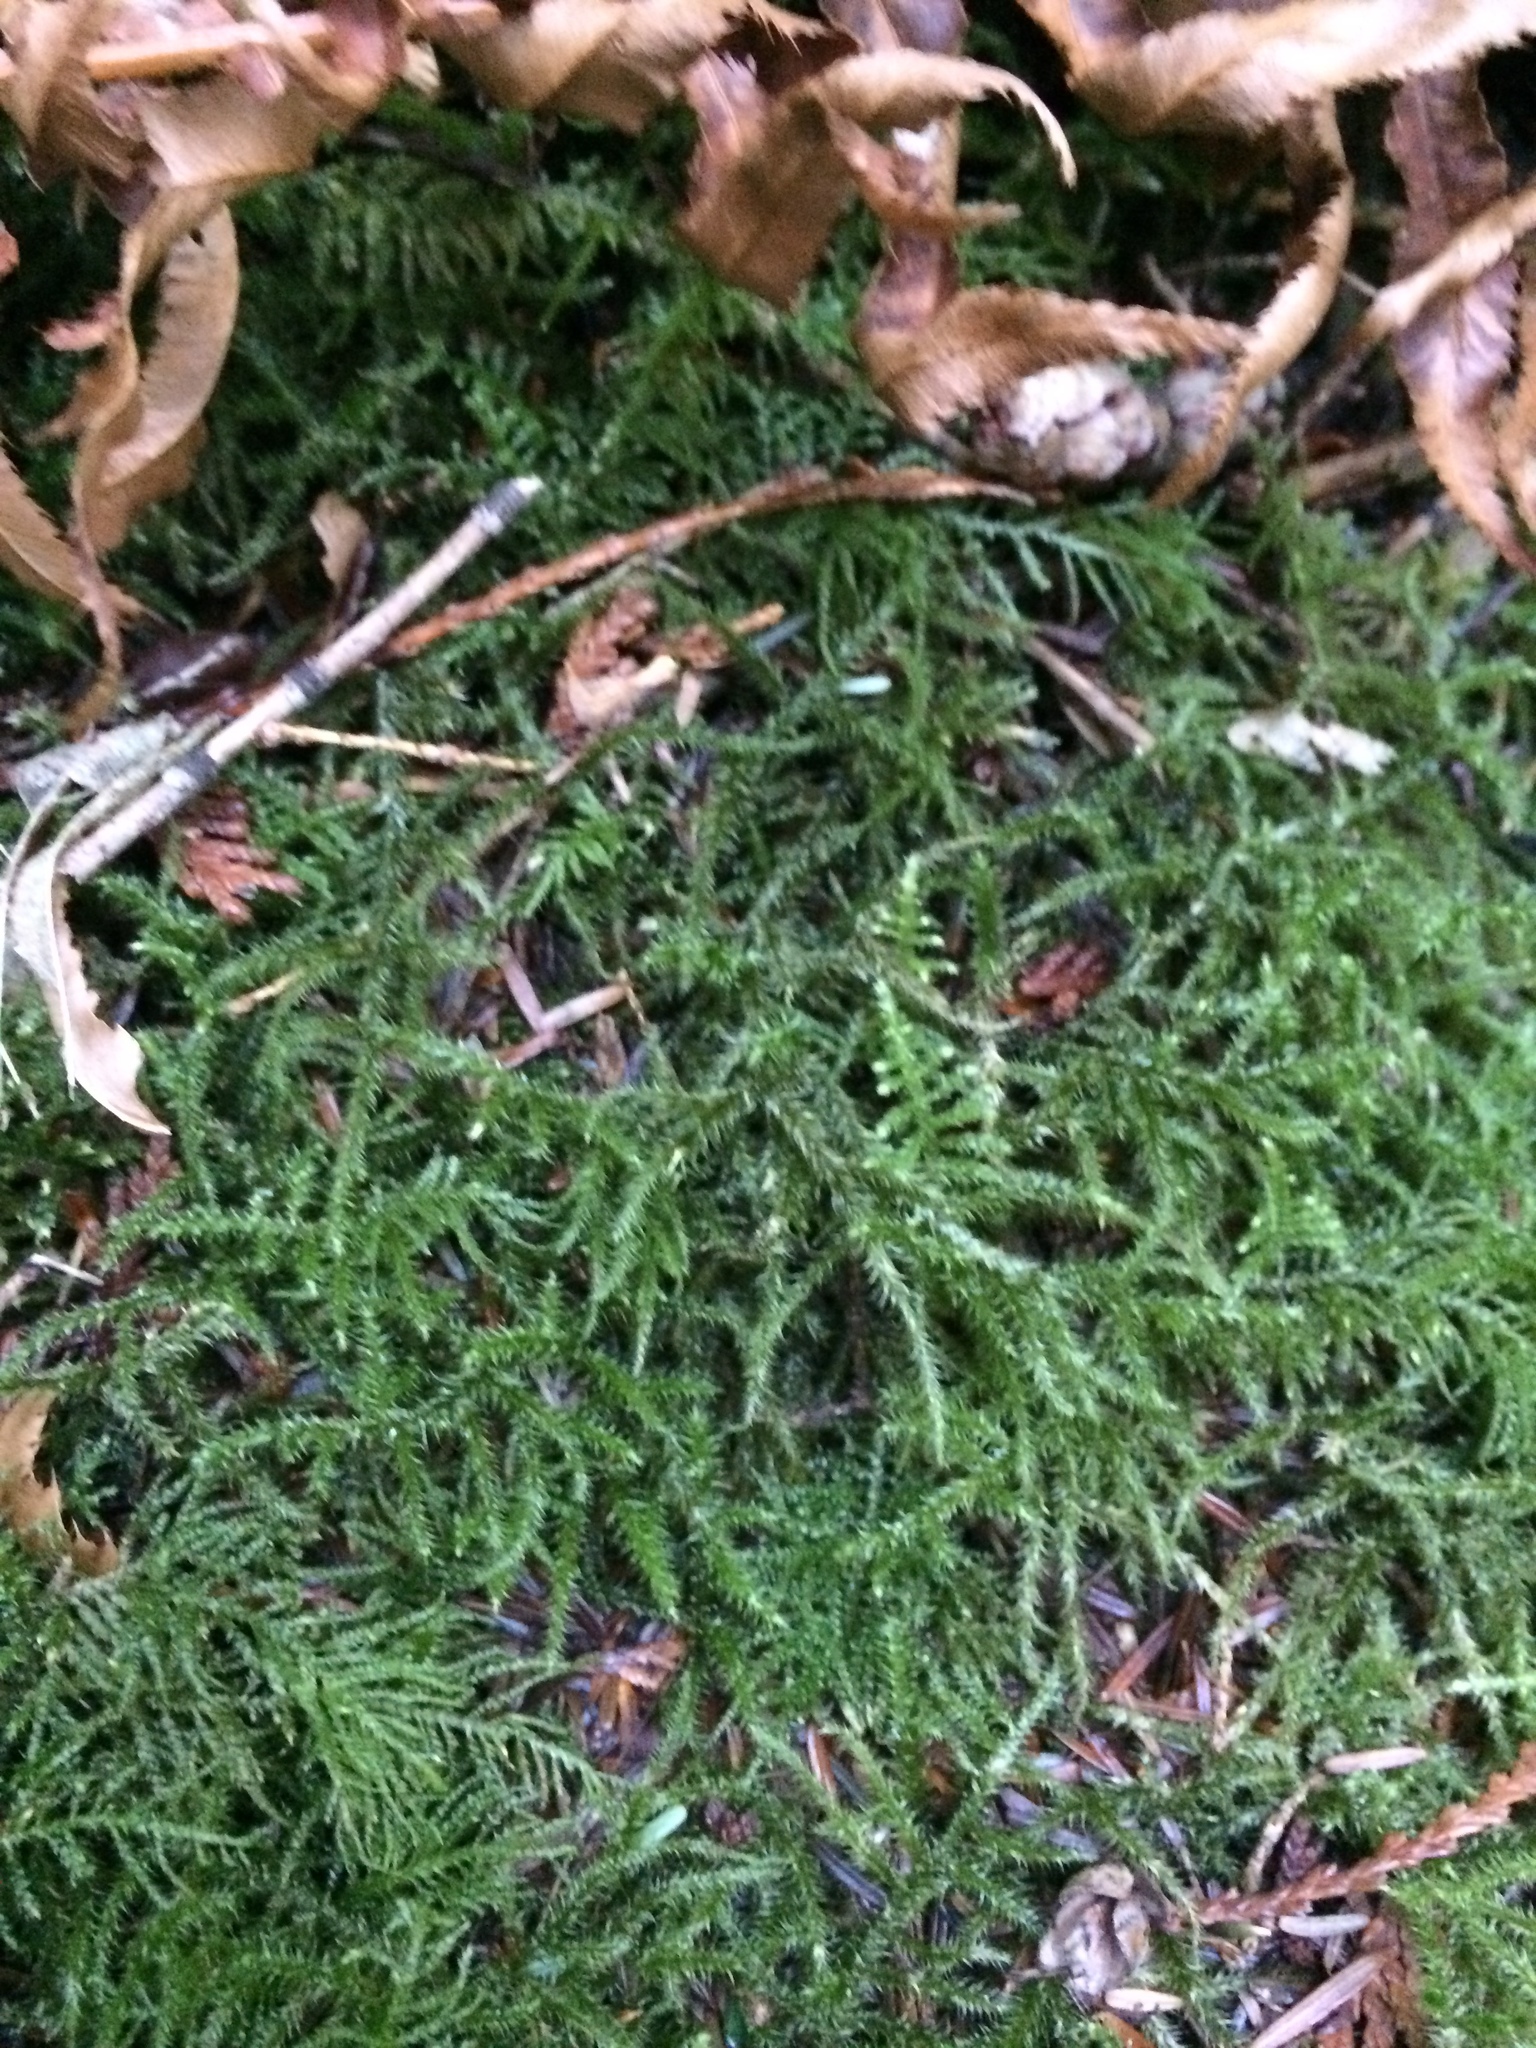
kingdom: Plantae
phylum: Bryophyta
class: Bryopsida
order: Hypnales
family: Hylocomiaceae
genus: Rhytidiadelphus
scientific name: Rhytidiadelphus loreus
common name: Lanky moss
